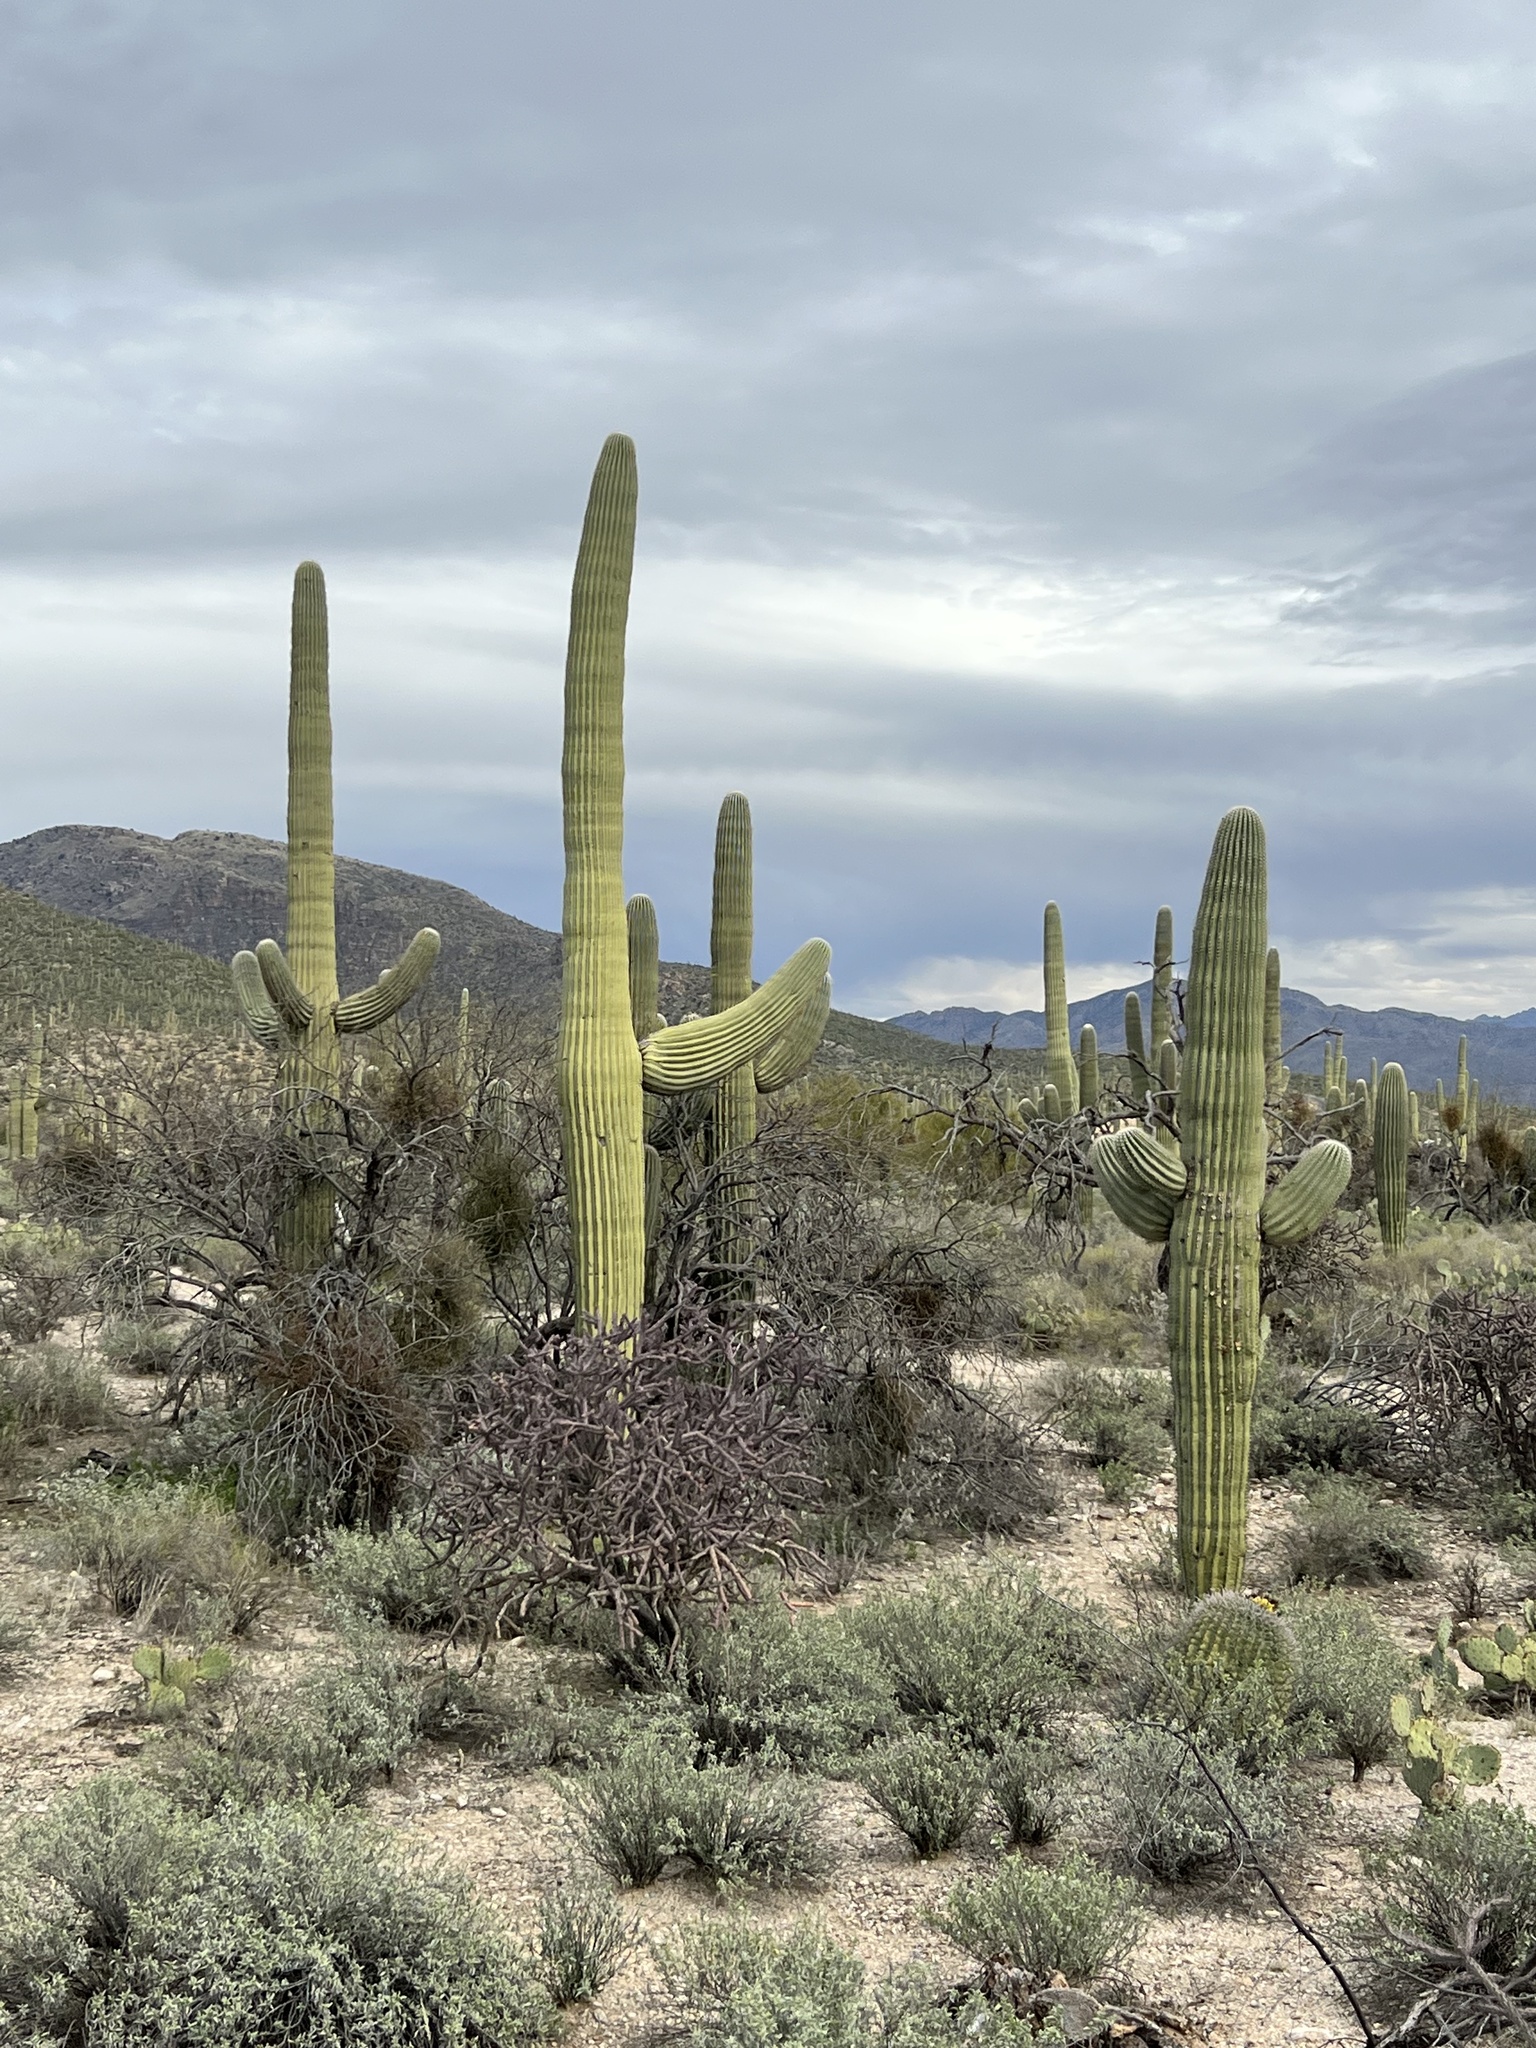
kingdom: Plantae
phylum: Tracheophyta
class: Magnoliopsida
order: Caryophyllales
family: Cactaceae
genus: Carnegiea
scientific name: Carnegiea gigantea
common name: Saguaro
